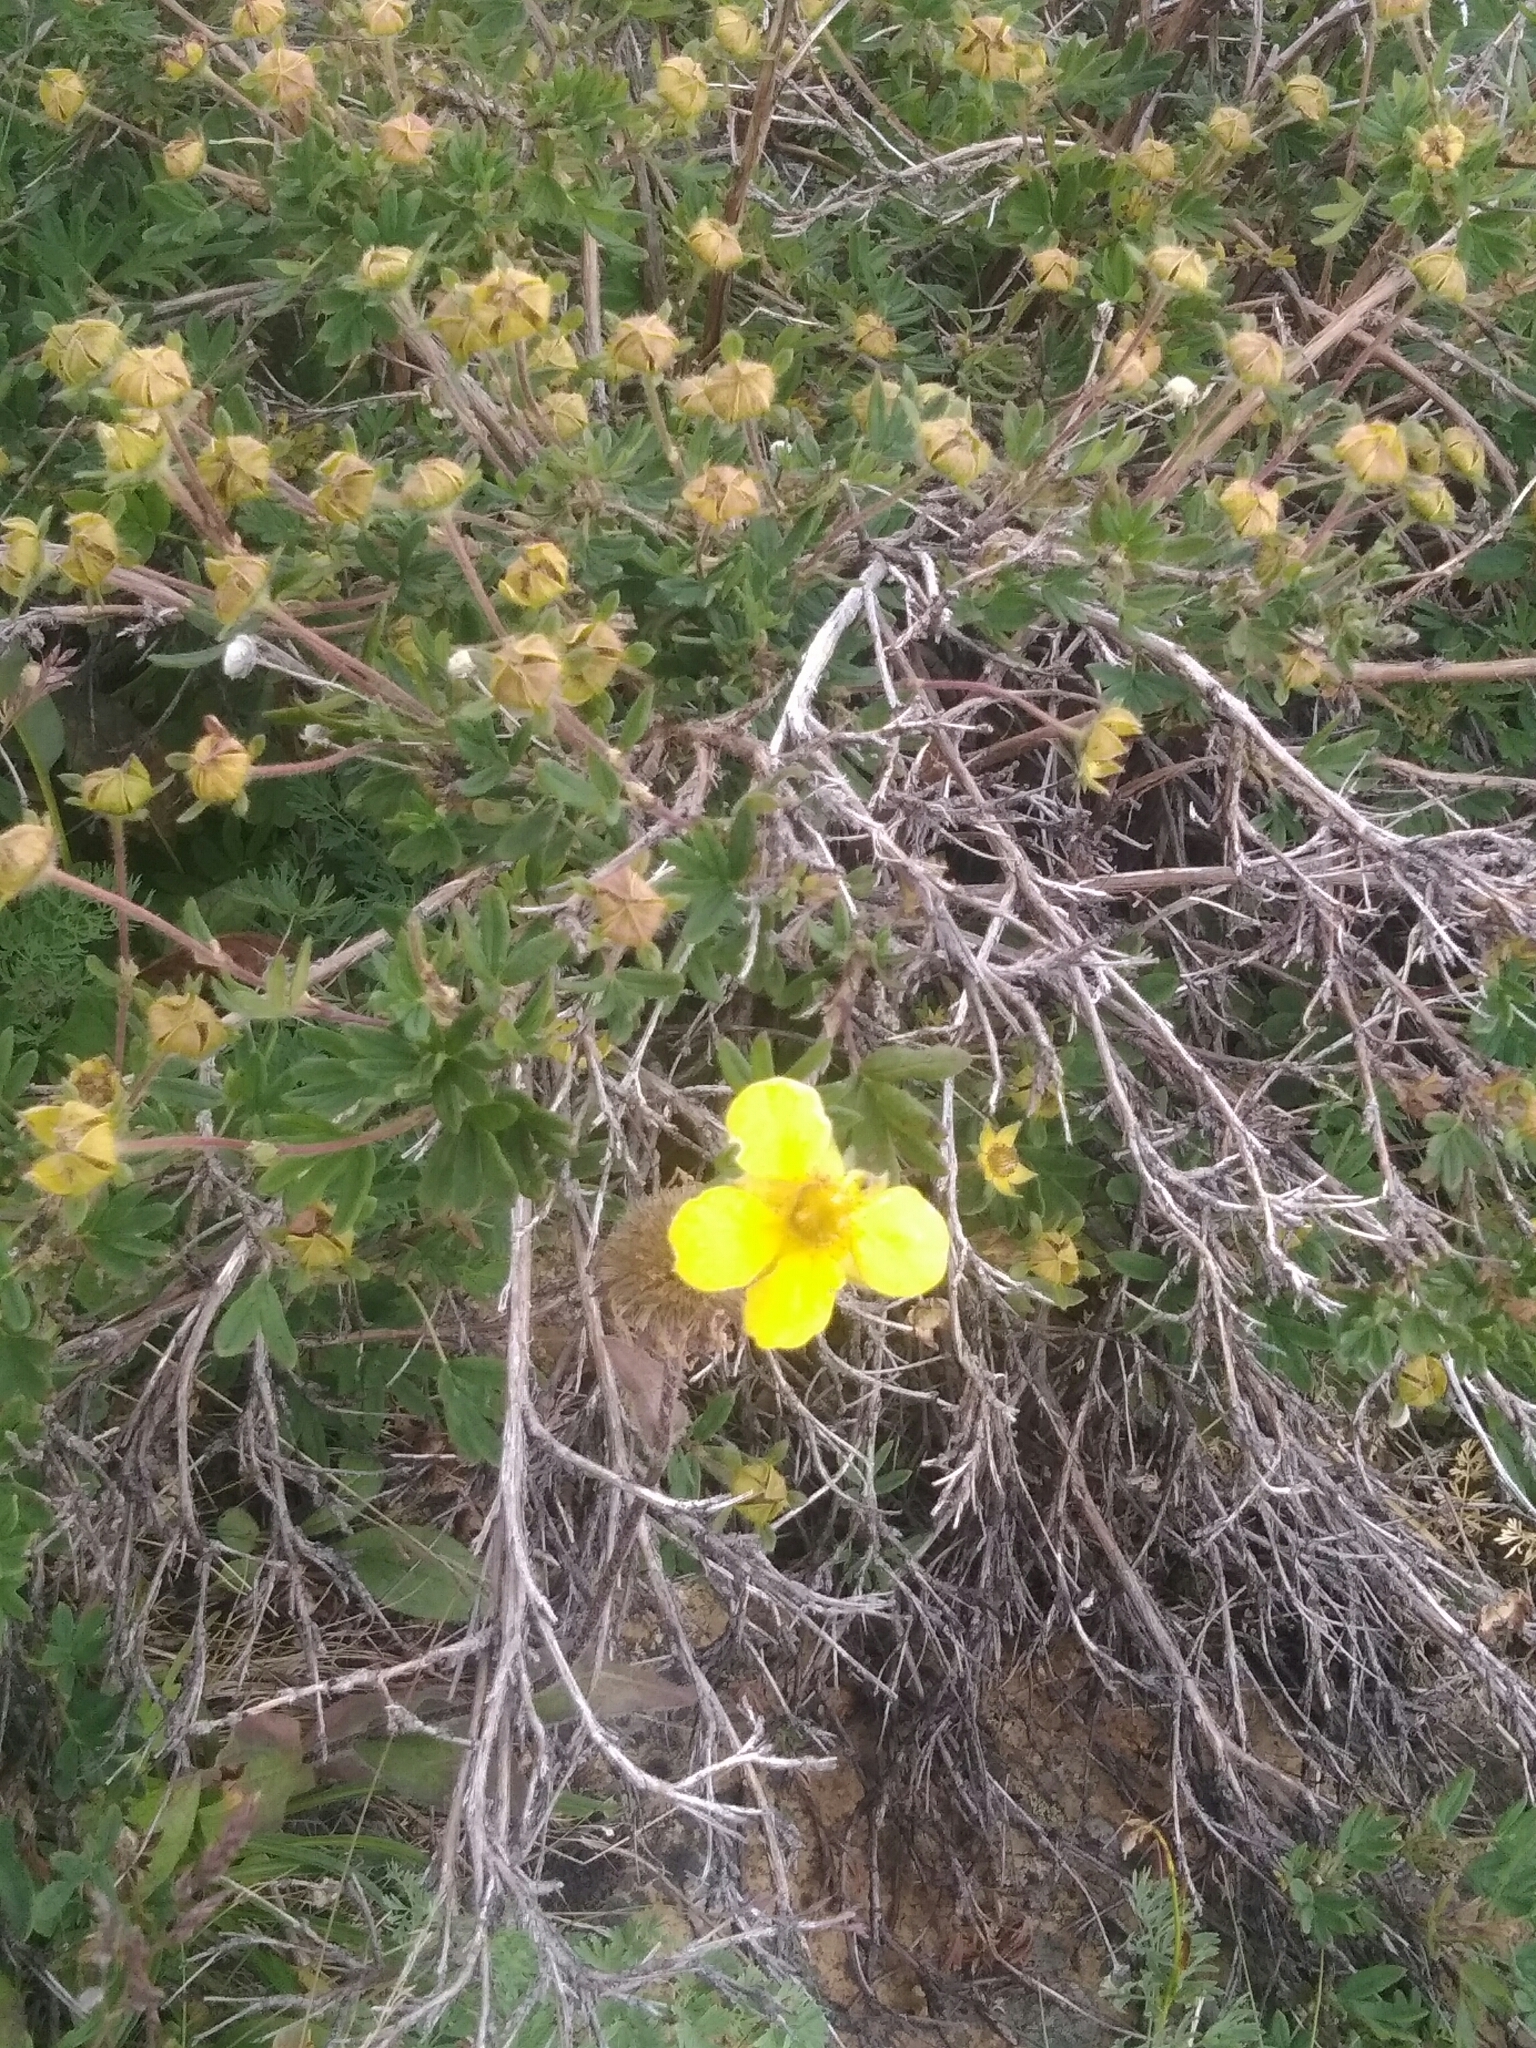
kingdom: Plantae
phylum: Tracheophyta
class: Magnoliopsida
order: Rosales
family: Rosaceae
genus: Dasiphora
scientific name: Dasiphora fruticosa
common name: Shrubby cinquefoil
